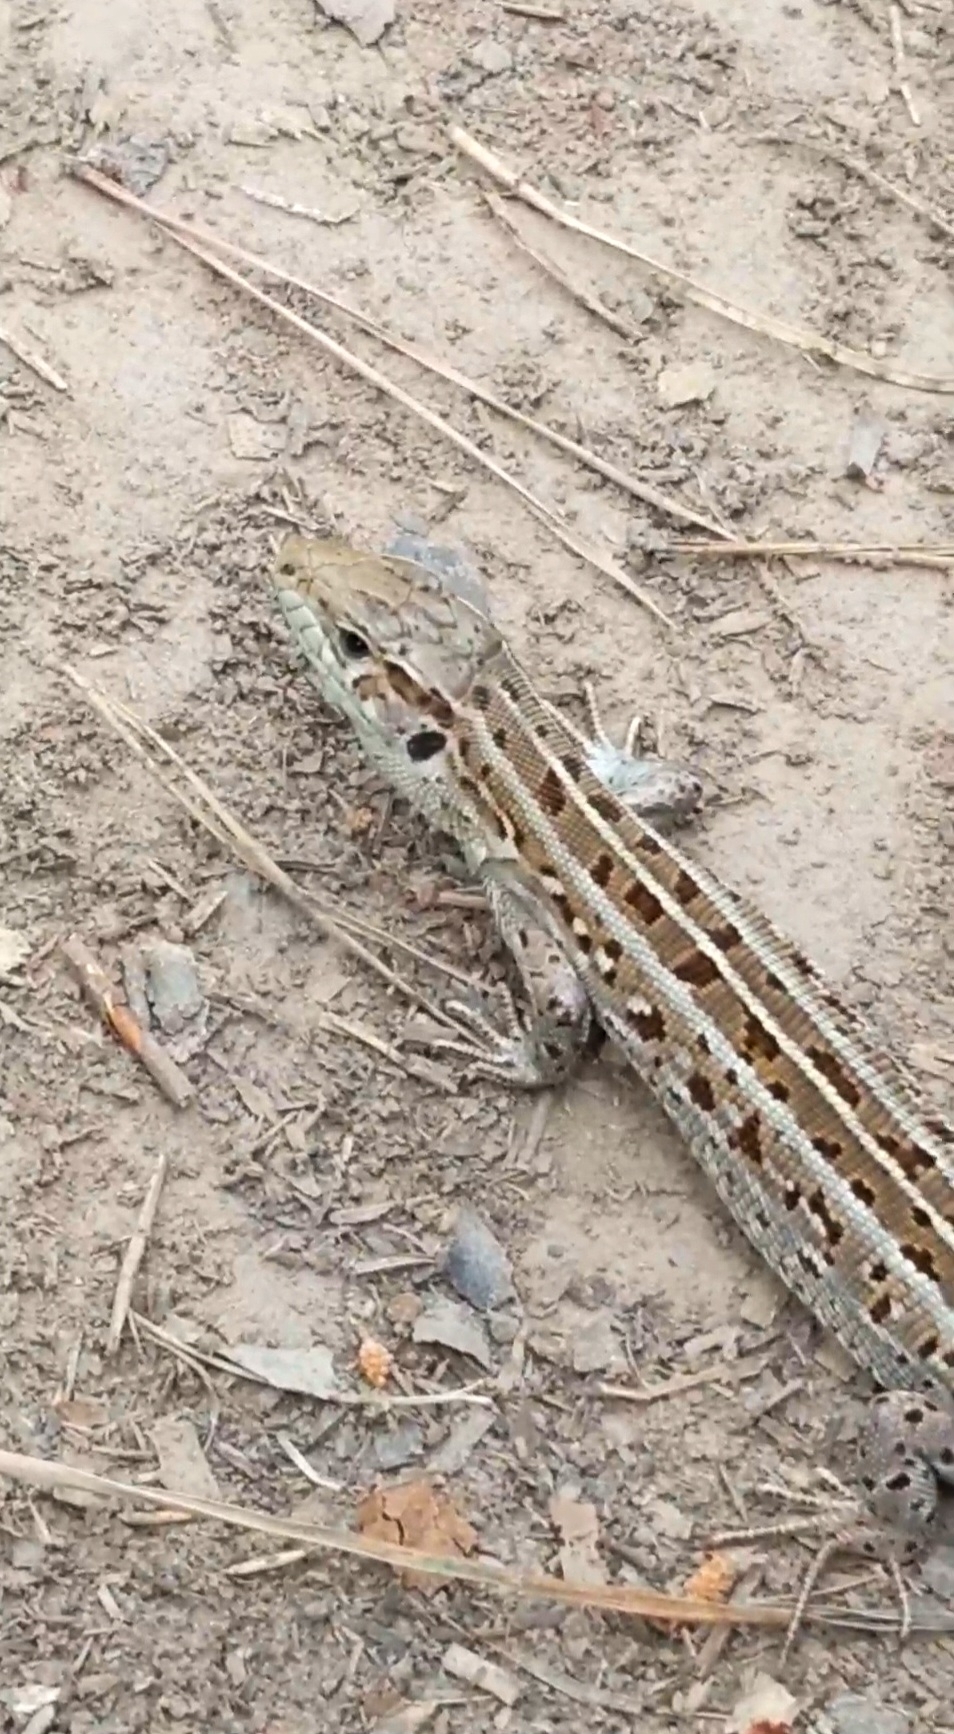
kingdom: Animalia
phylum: Chordata
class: Squamata
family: Lacertidae
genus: Lacerta
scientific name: Lacerta agilis
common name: Sand lizard
